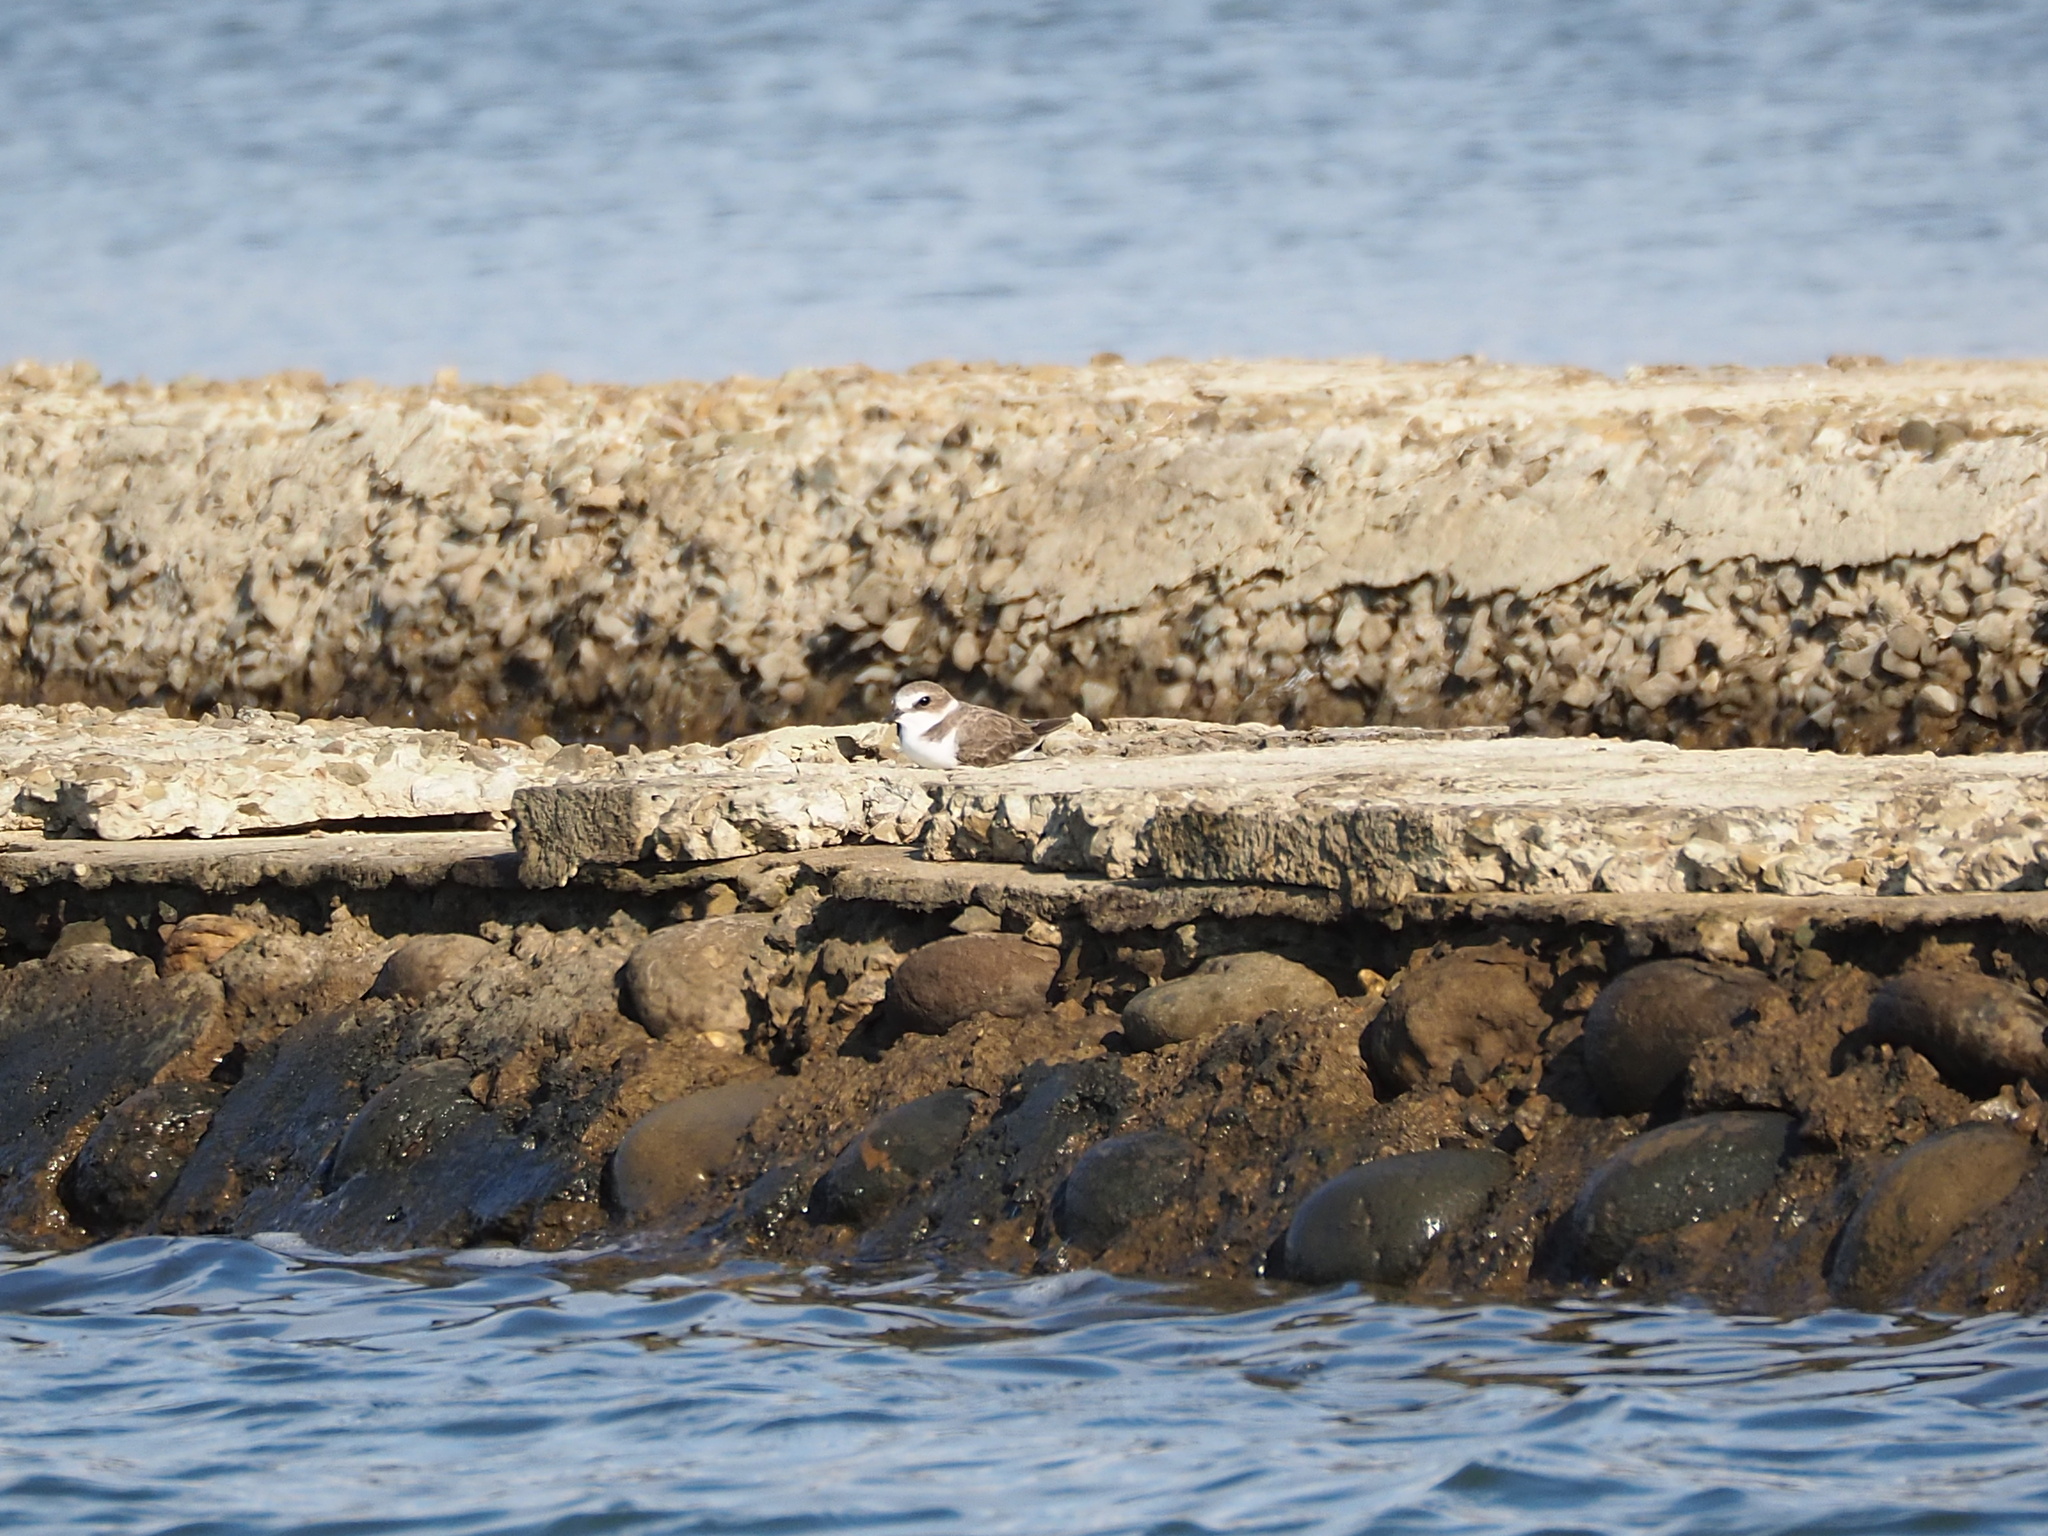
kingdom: Animalia
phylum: Chordata
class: Aves
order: Charadriiformes
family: Charadriidae
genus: Charadrius
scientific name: Charadrius alexandrinus
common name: Kentish plover
